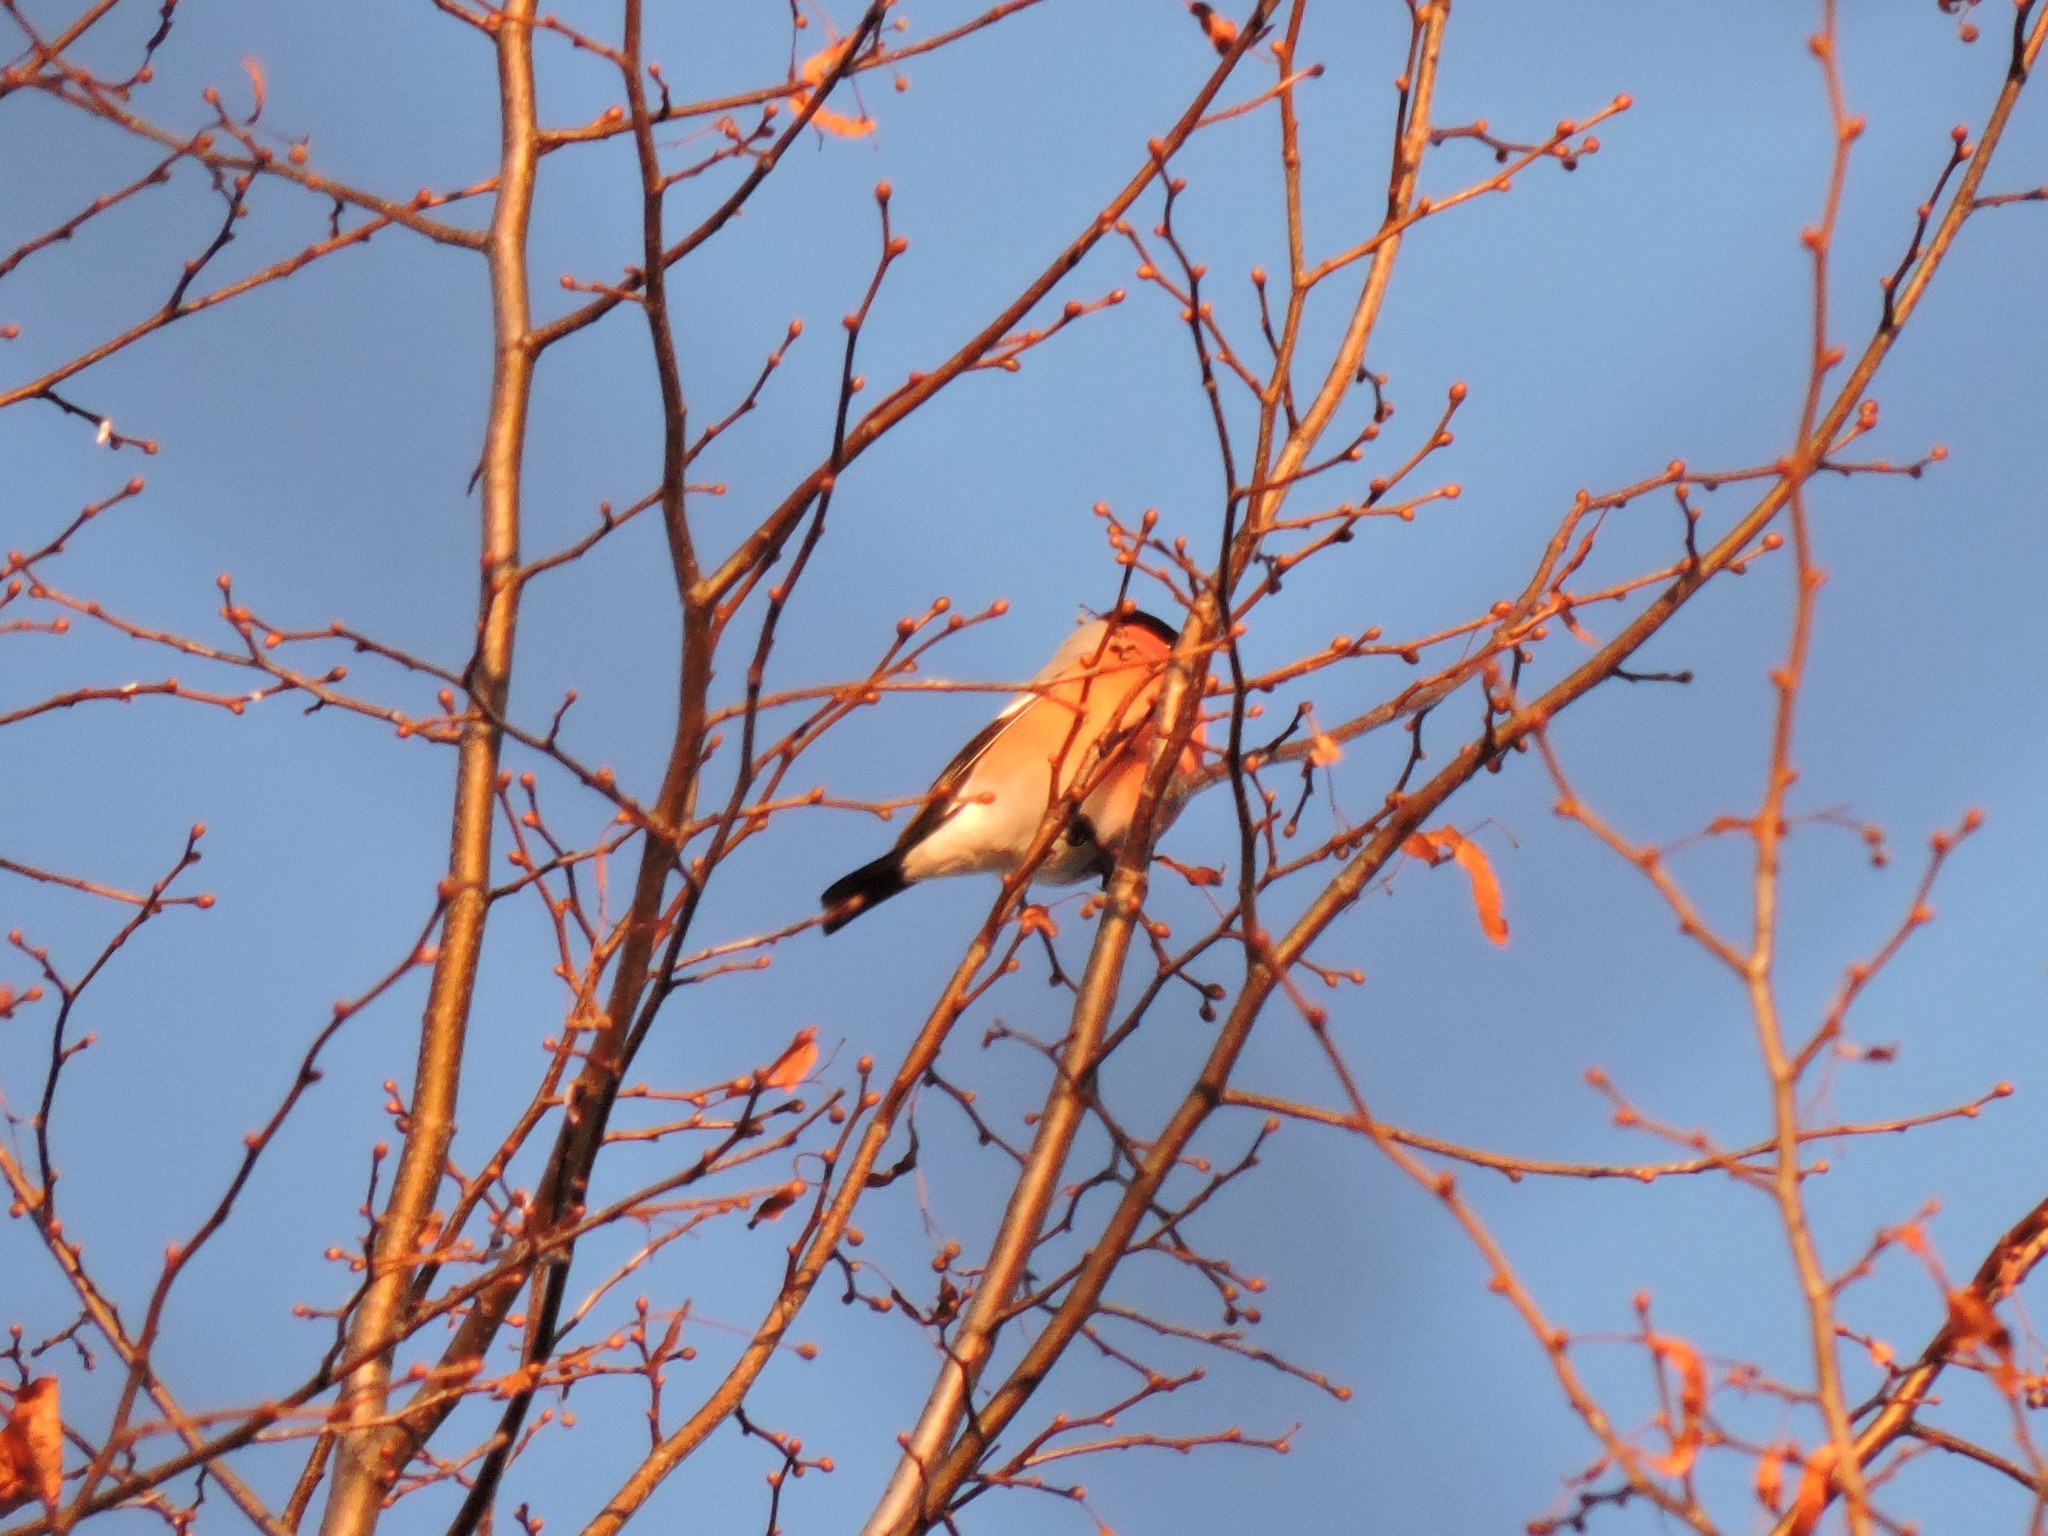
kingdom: Animalia
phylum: Chordata
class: Aves
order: Passeriformes
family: Fringillidae
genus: Pyrrhula
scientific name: Pyrrhula pyrrhula
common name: Eurasian bullfinch
